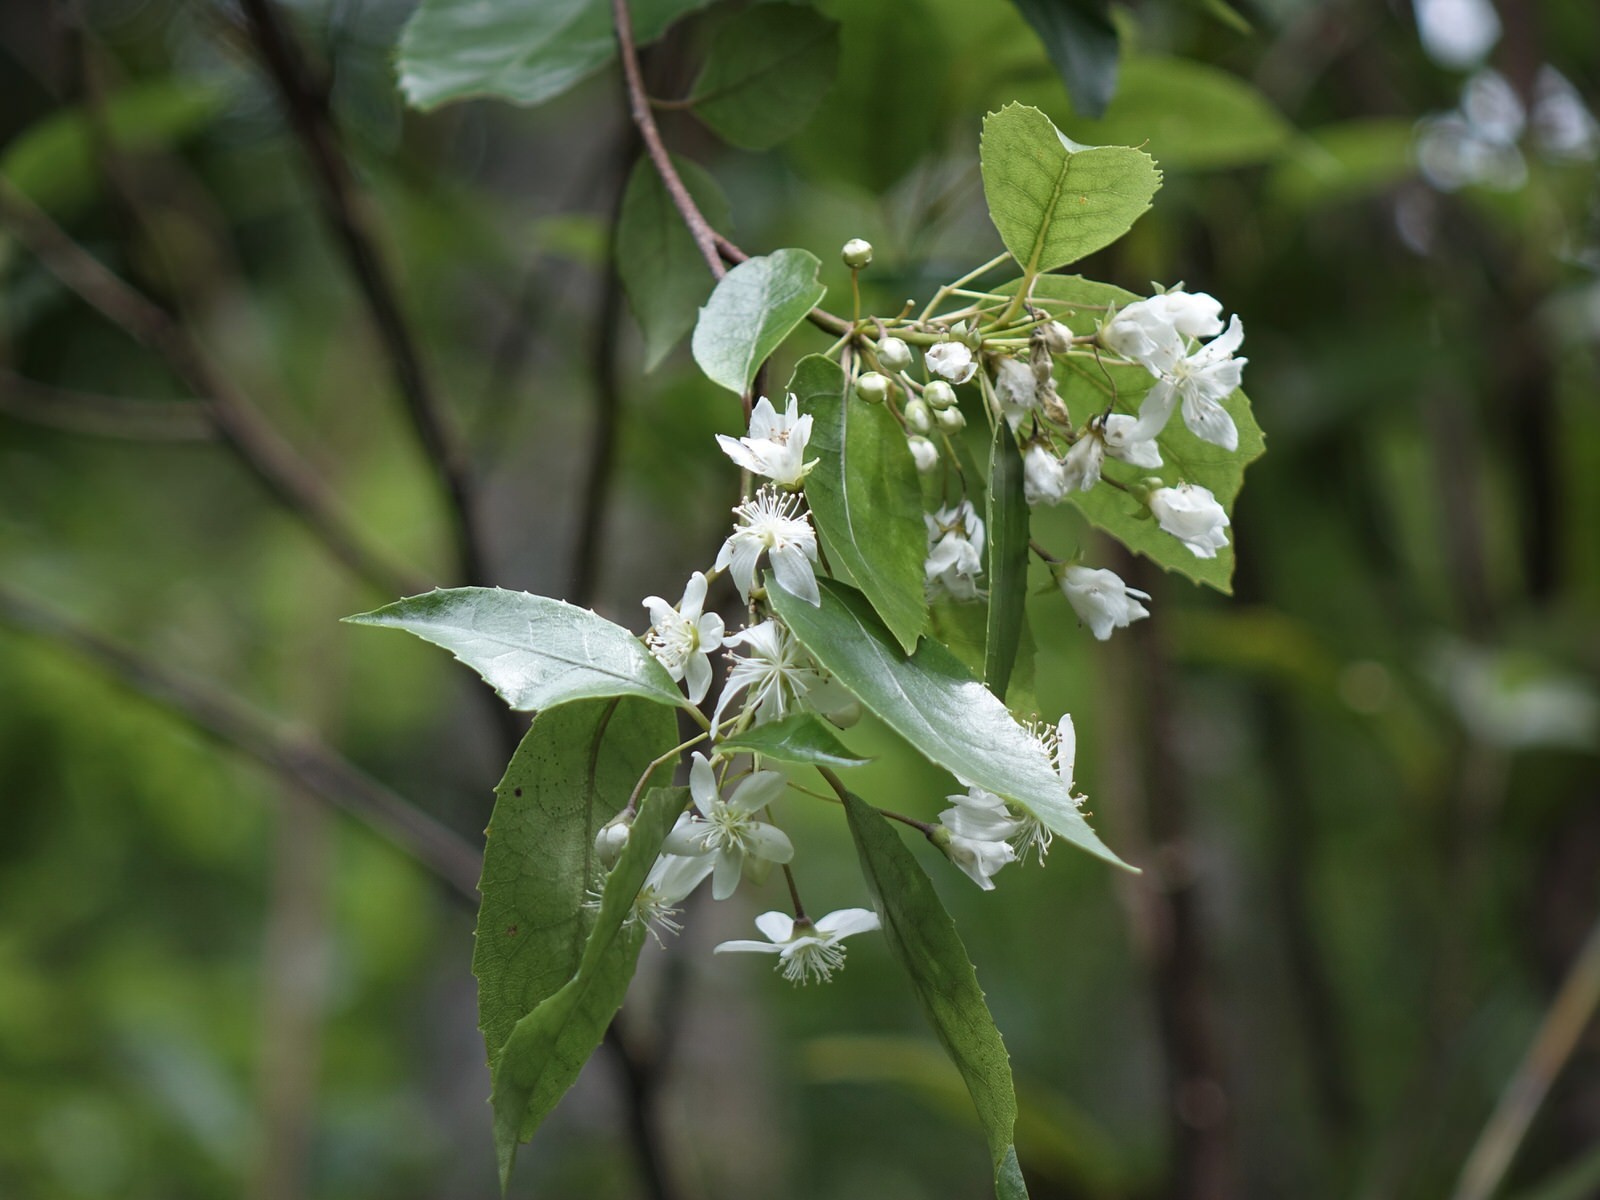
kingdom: Plantae
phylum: Tracheophyta
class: Magnoliopsida
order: Malvales
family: Malvaceae
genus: Hoheria
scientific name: Hoheria populnea
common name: Lacebark
